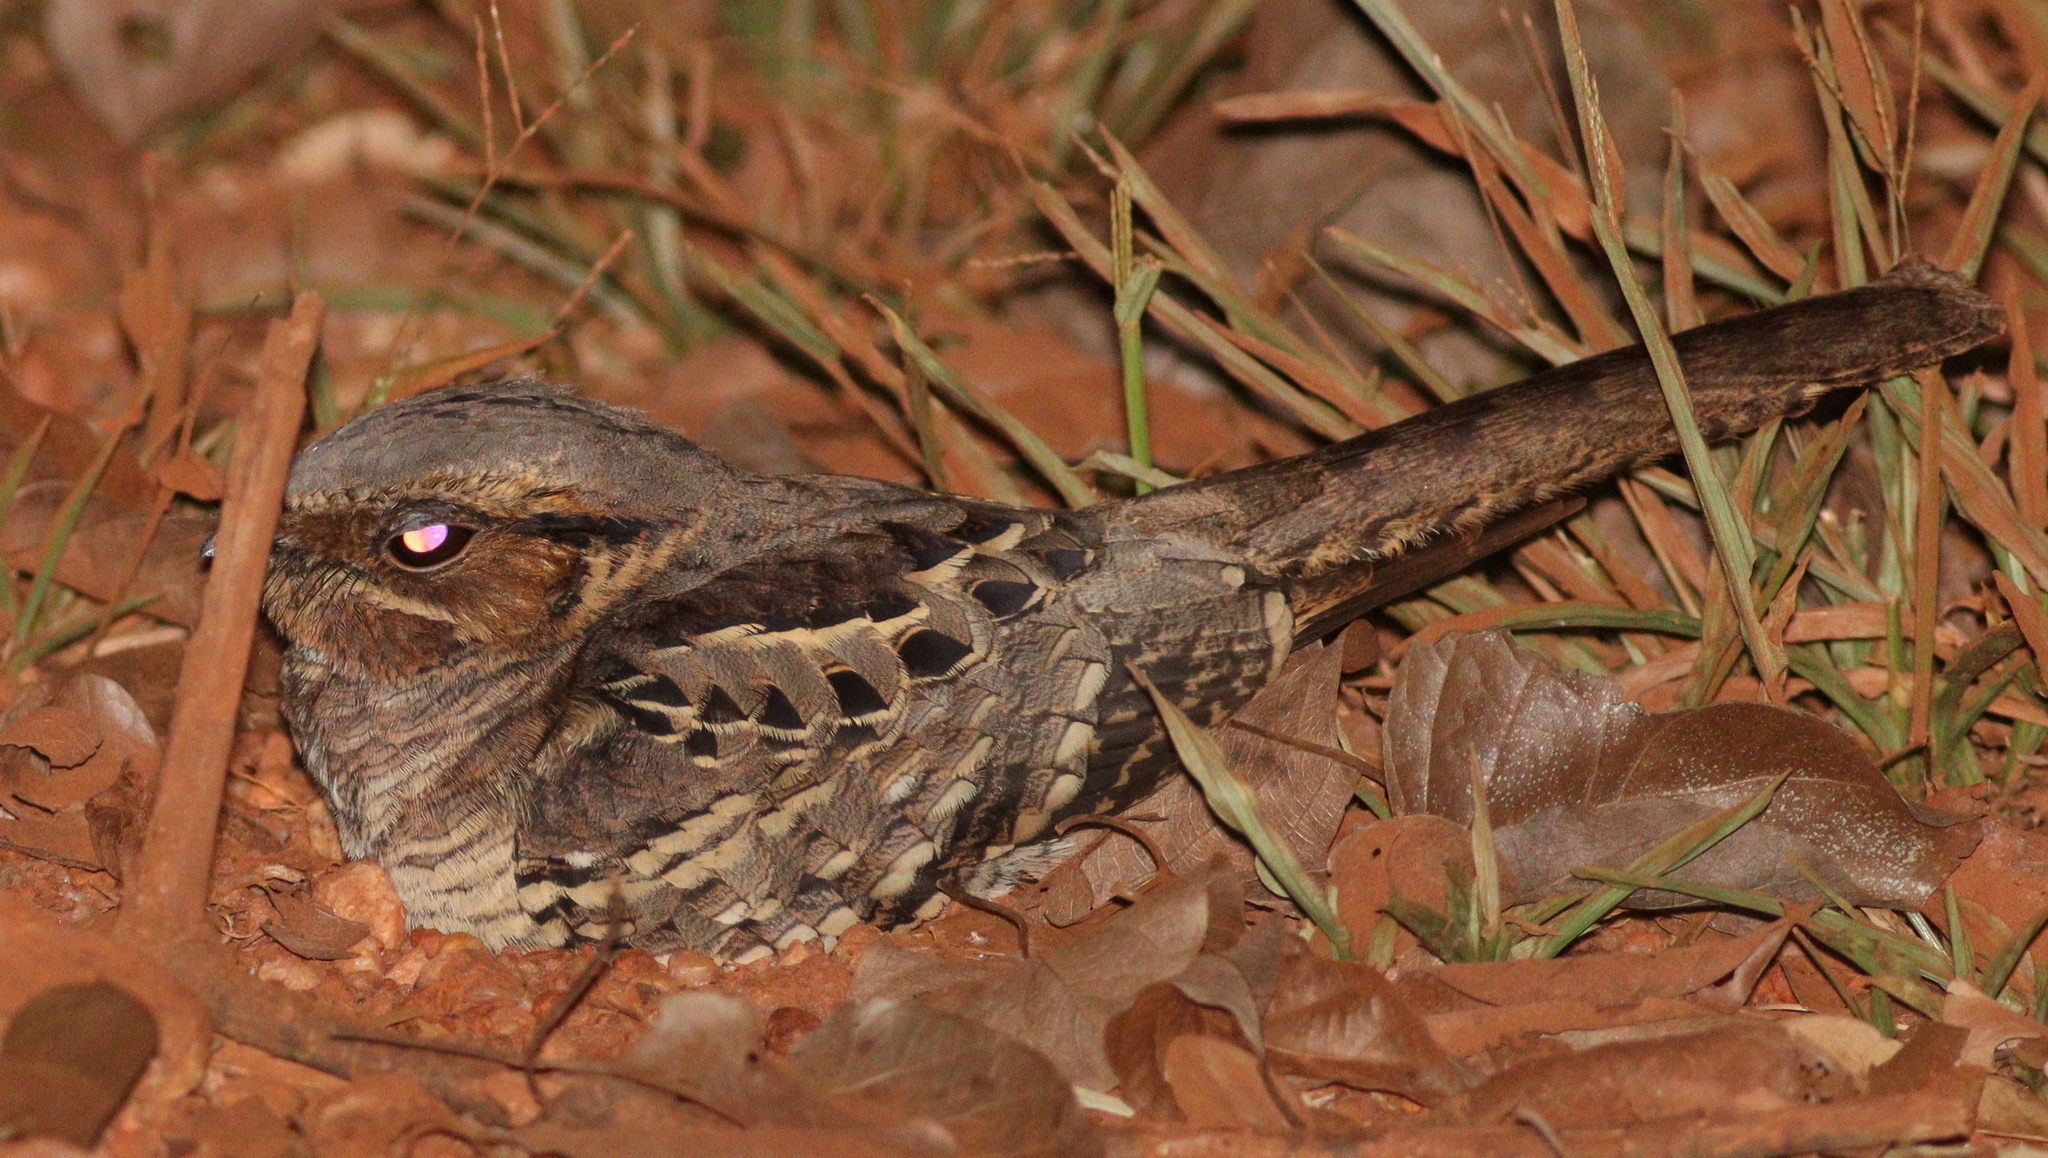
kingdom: Animalia
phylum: Chordata
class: Aves
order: Caprimulgiformes
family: Caprimulgidae
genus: Nyctidromus
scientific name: Nyctidromus albicollis
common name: Pauraque
